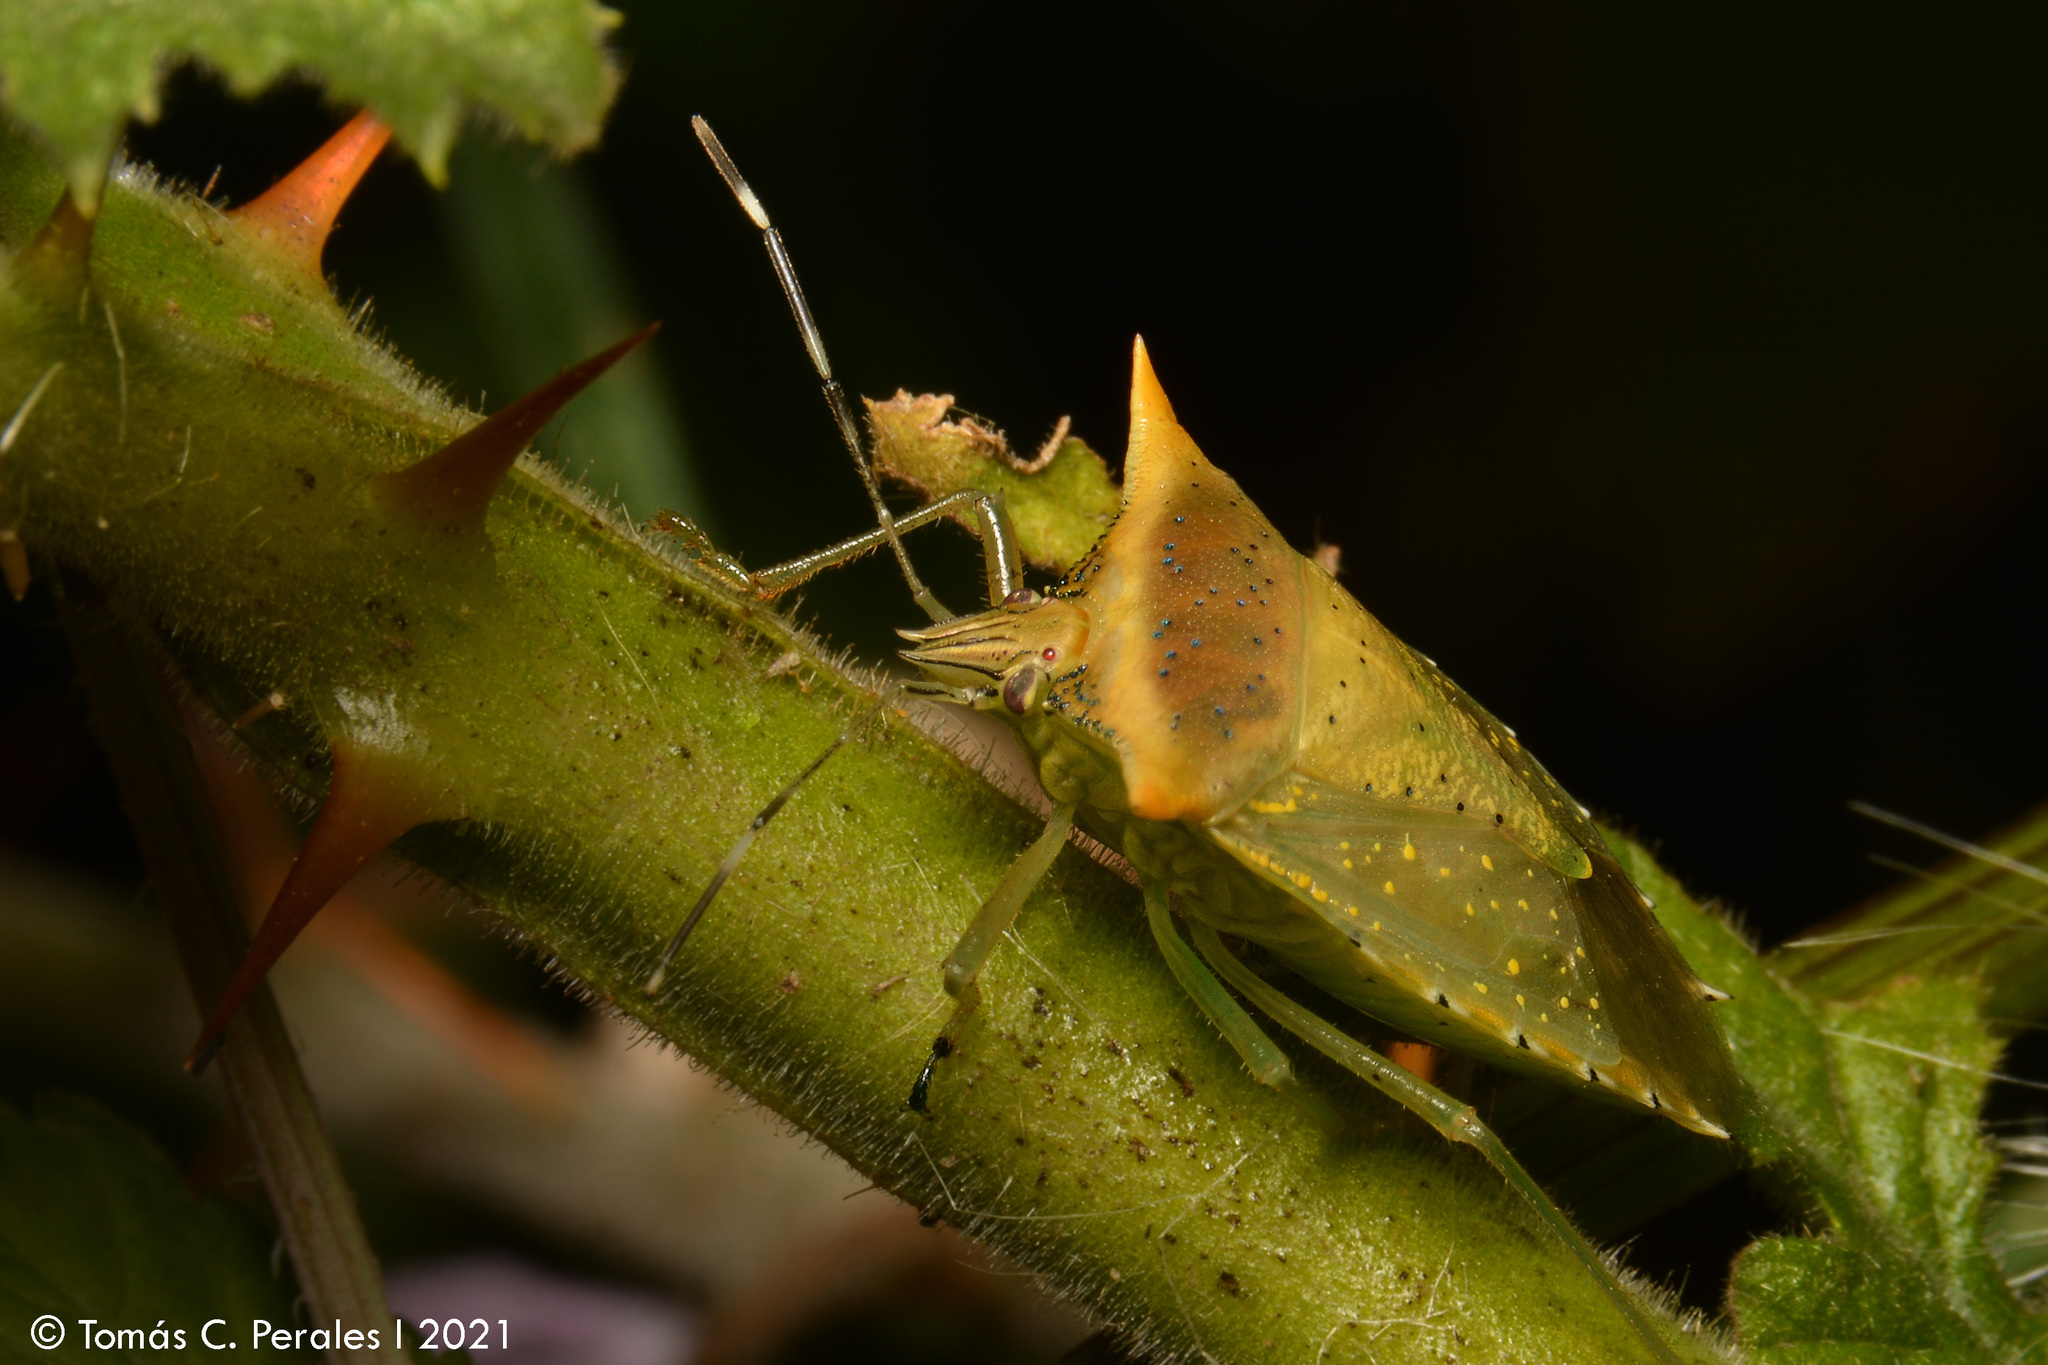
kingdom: Animalia
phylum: Arthropoda
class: Insecta
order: Hemiptera
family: Pentatomidae
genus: Arvelius
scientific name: Arvelius albopunctatus
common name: Tomato stink bug
